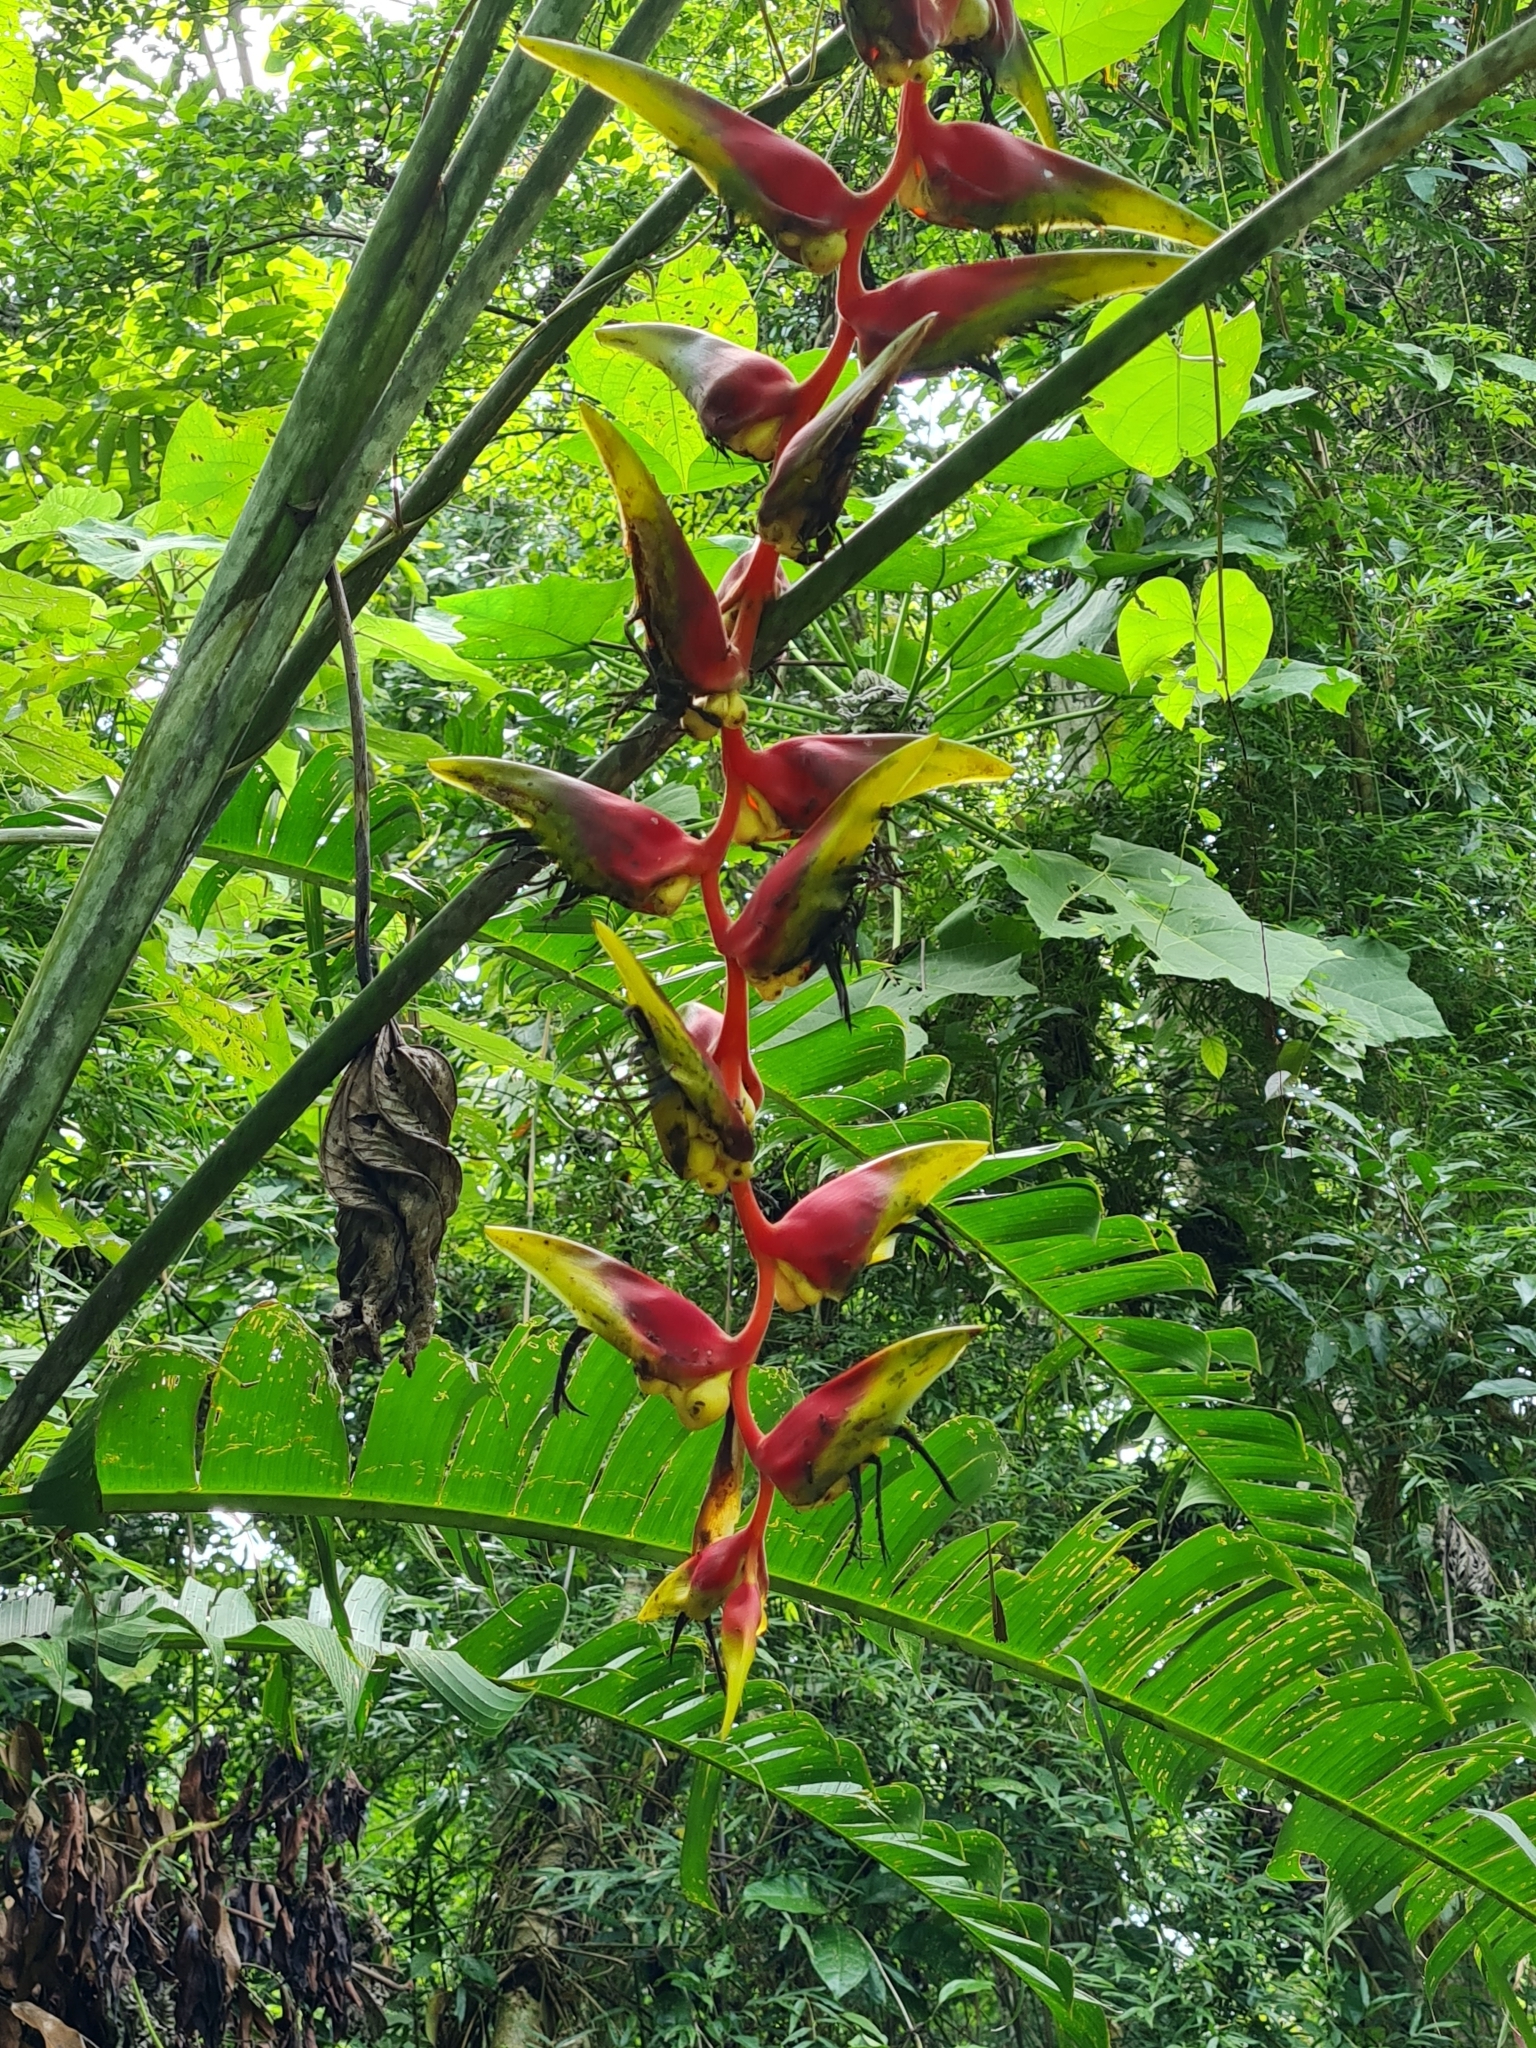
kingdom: Plantae
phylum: Tracheophyta
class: Liliopsida
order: Zingiberales
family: Heliconiaceae
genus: Heliconia
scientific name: Heliconia platystachys
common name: False bird of paradise
